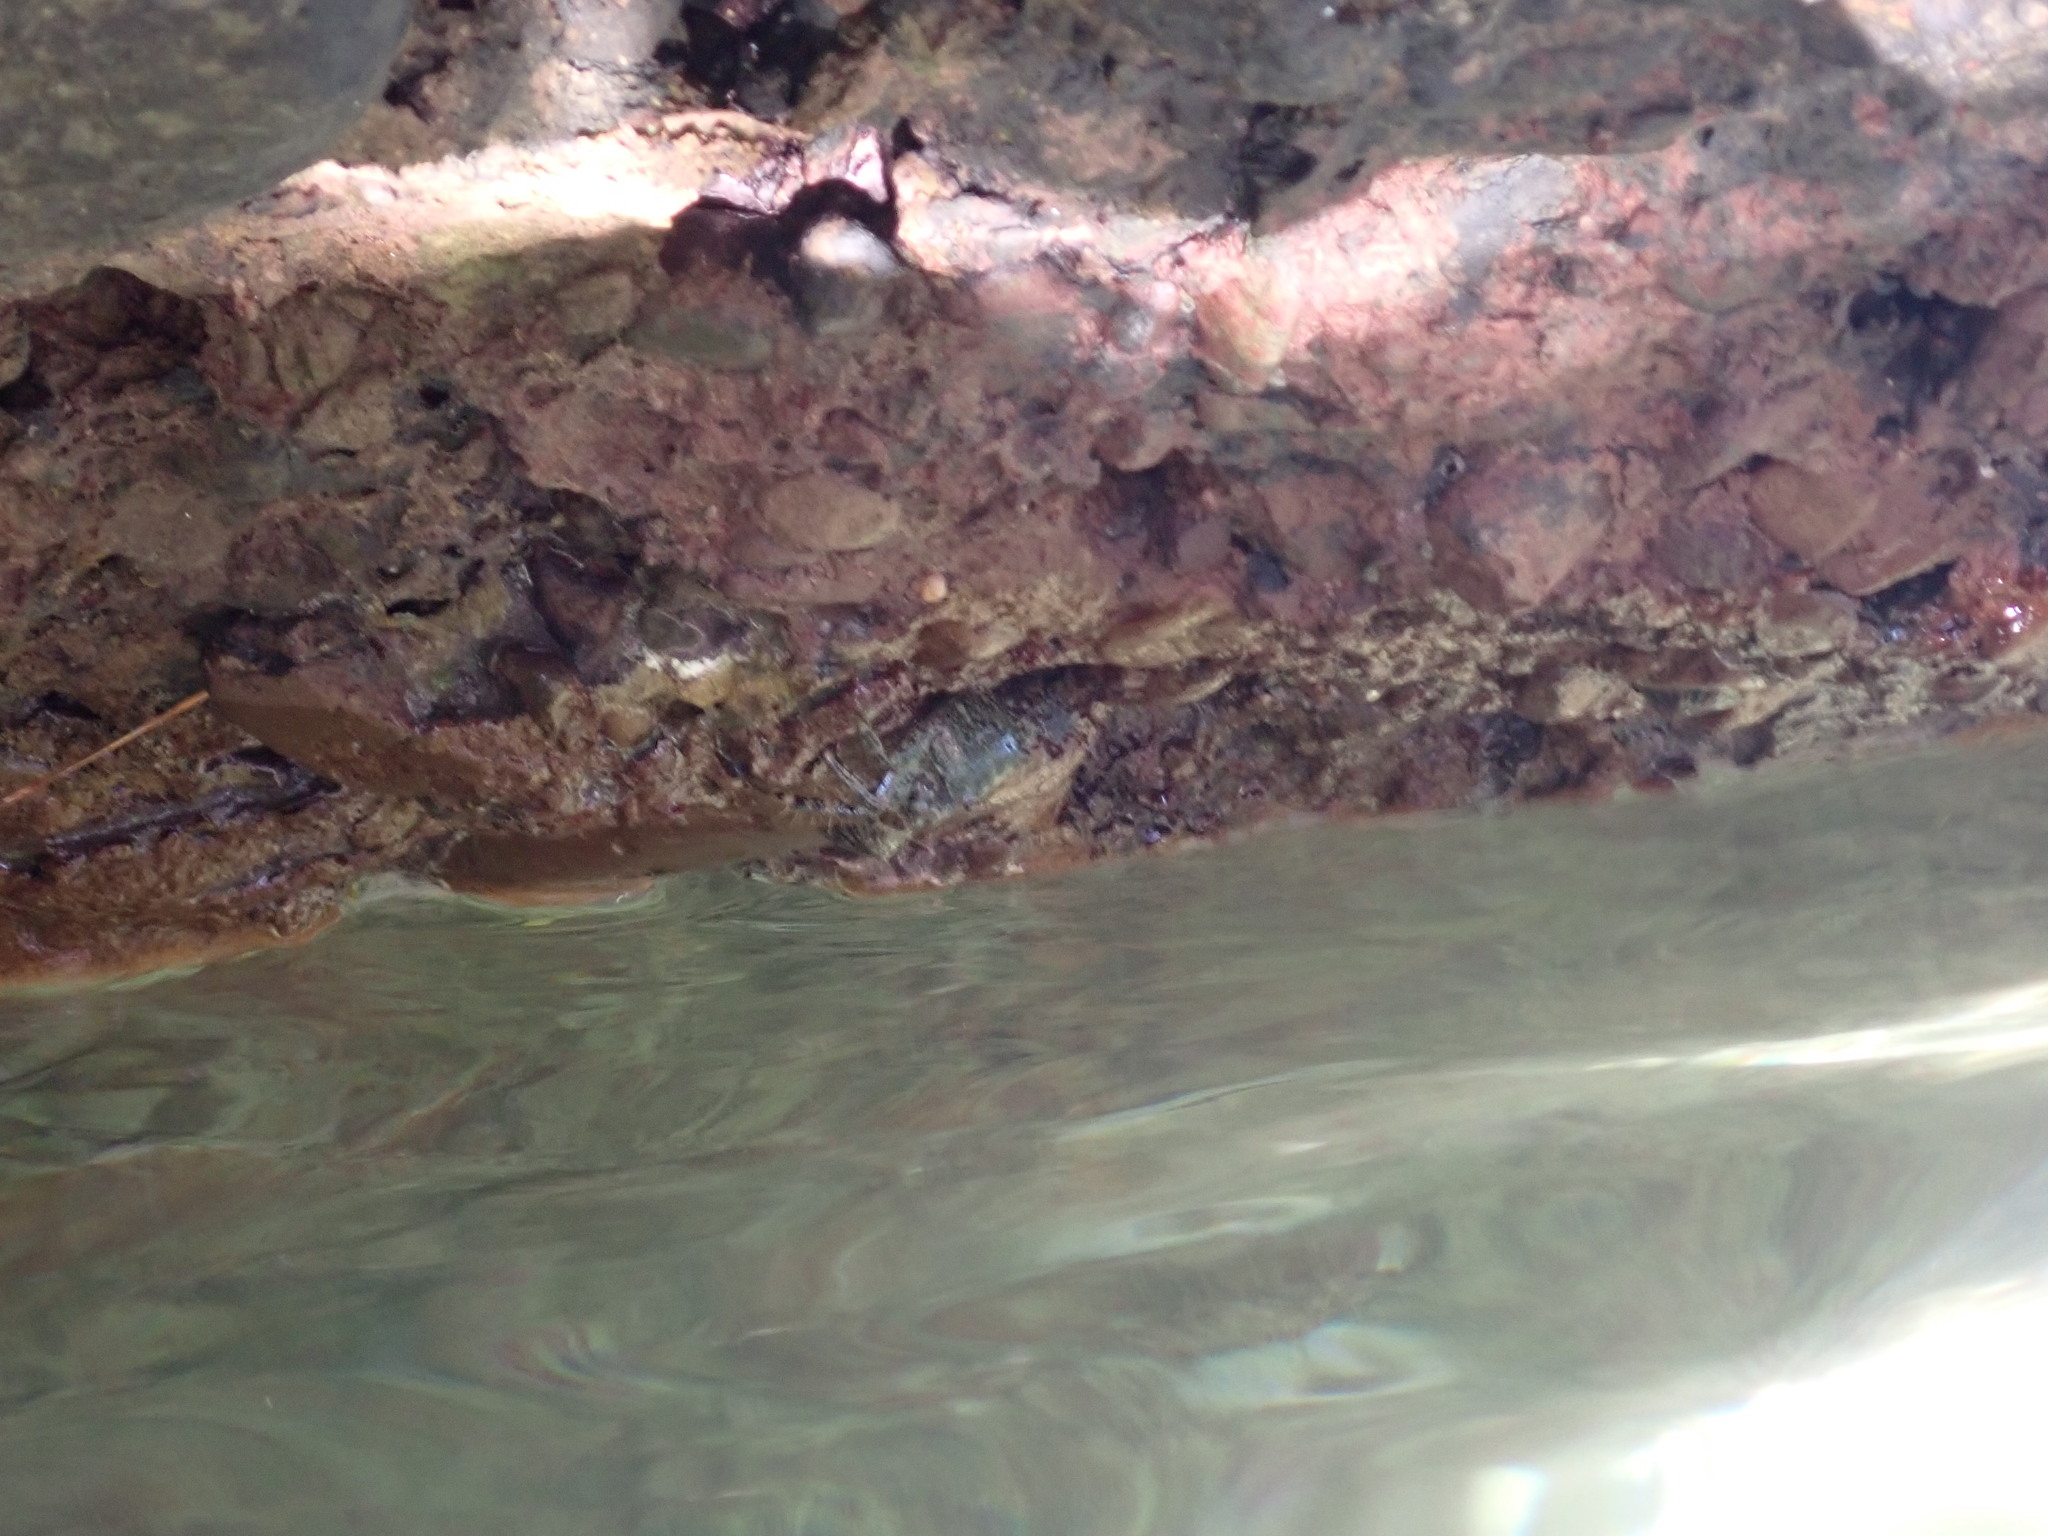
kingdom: Animalia
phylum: Arthropoda
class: Malacostraca
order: Decapoda
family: Grapsidae
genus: Pachygrapsus
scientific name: Pachygrapsus marmoratus
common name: Marbled rock crab
